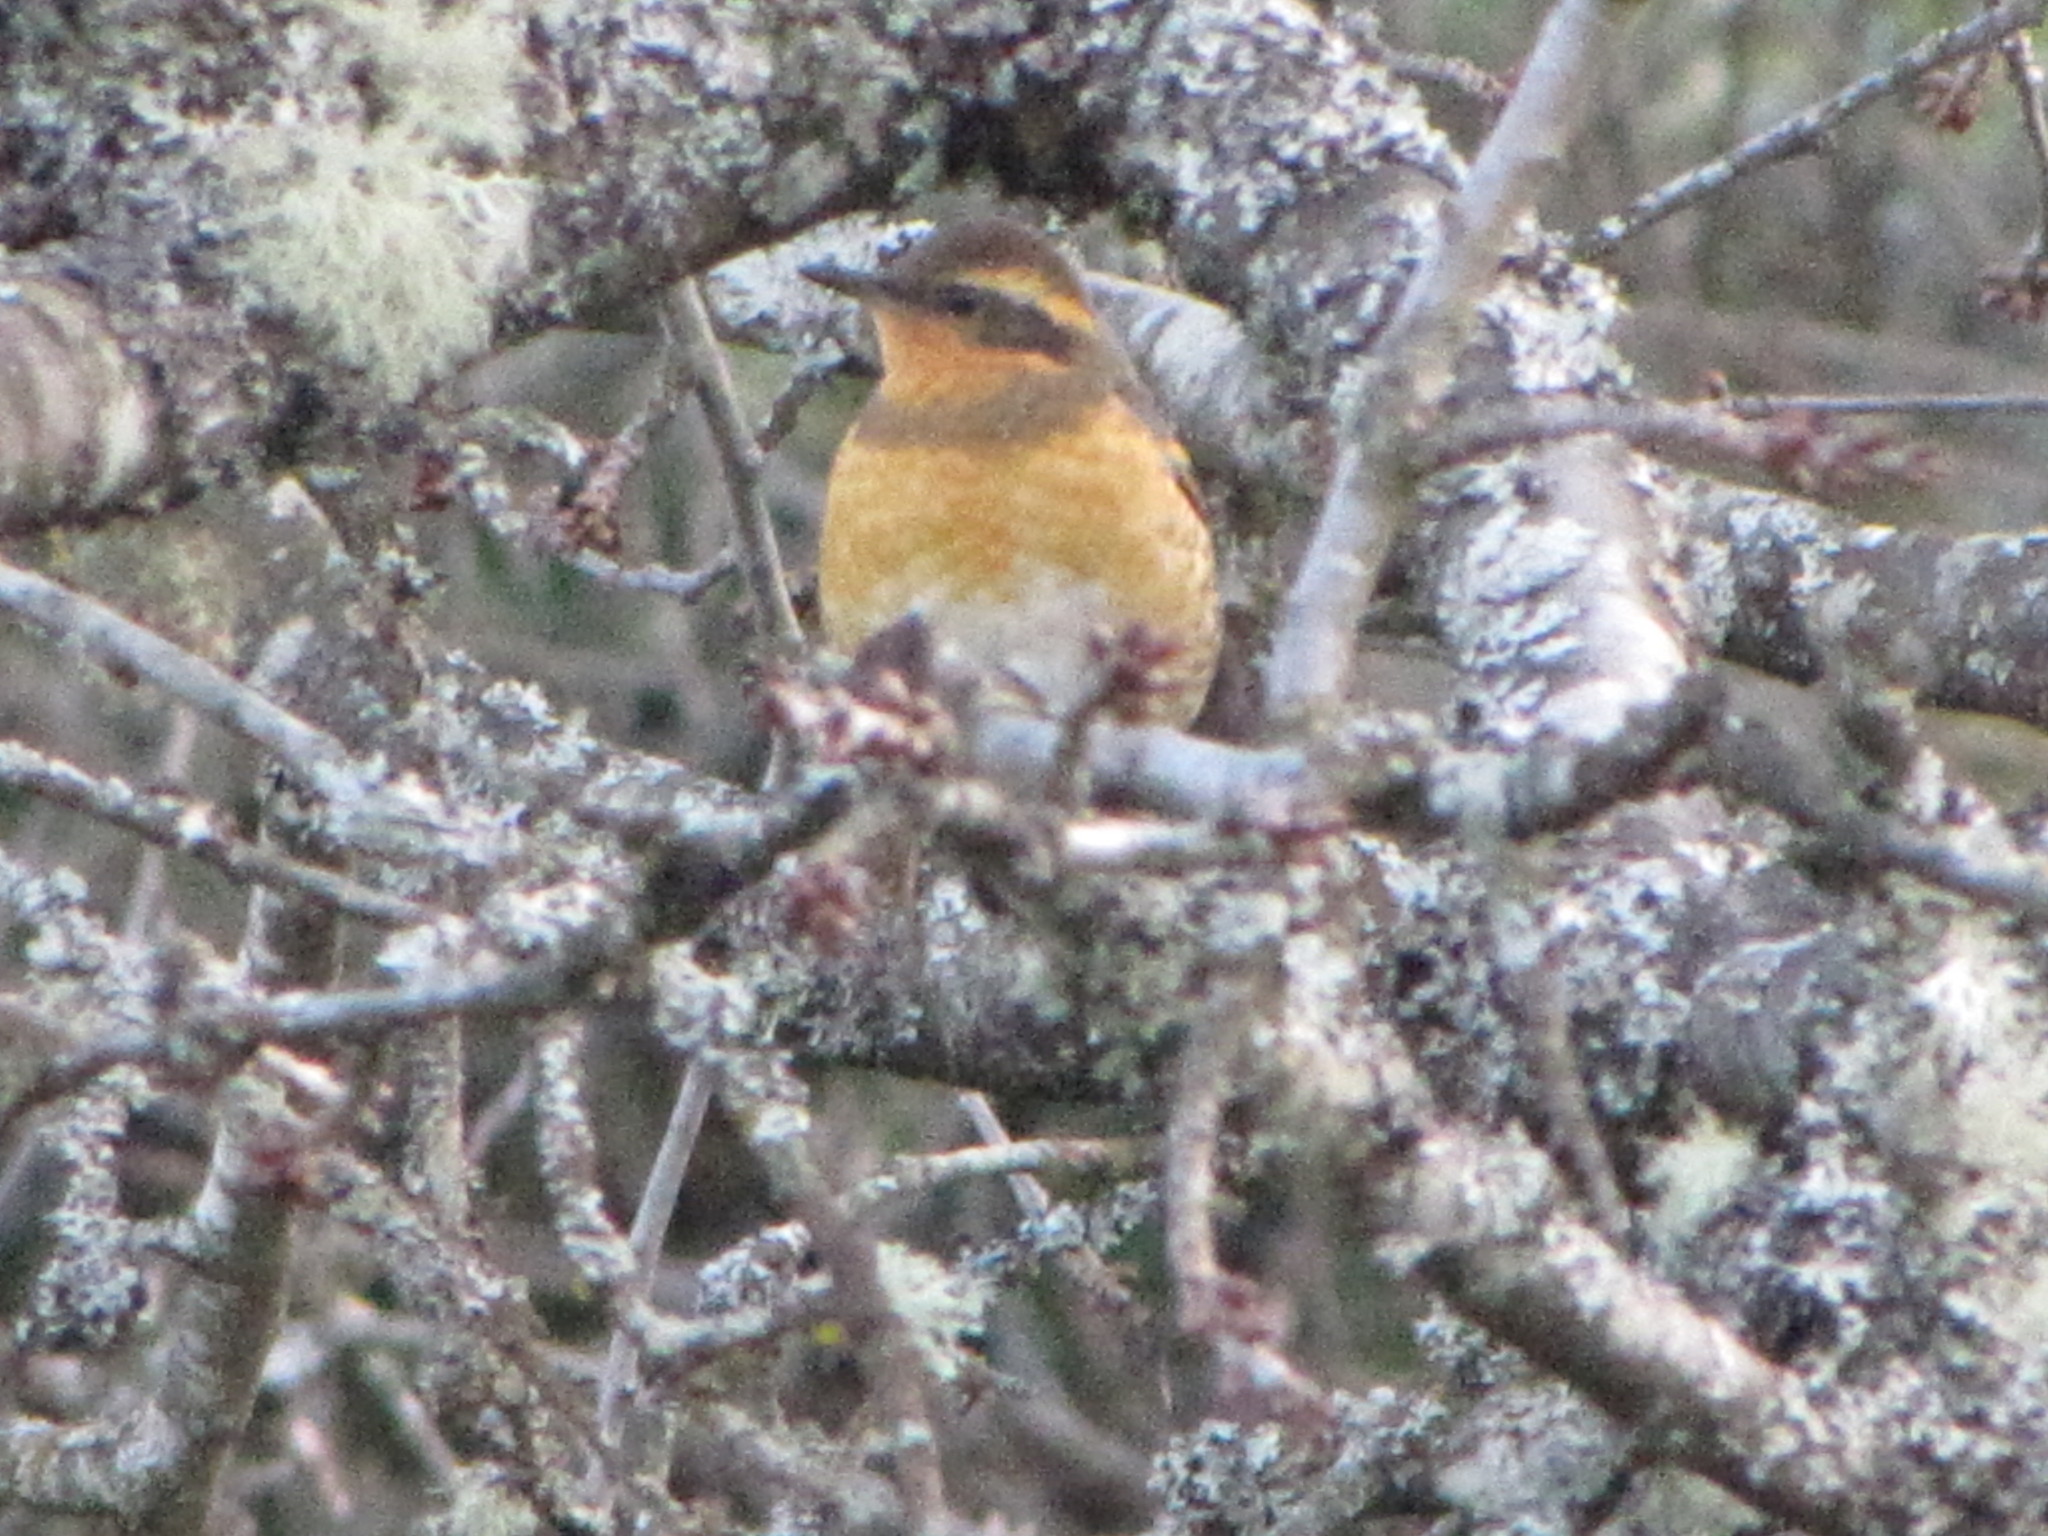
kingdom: Animalia
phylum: Chordata
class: Aves
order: Passeriformes
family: Turdidae
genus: Ixoreus
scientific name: Ixoreus naevius
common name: Varied thrush
